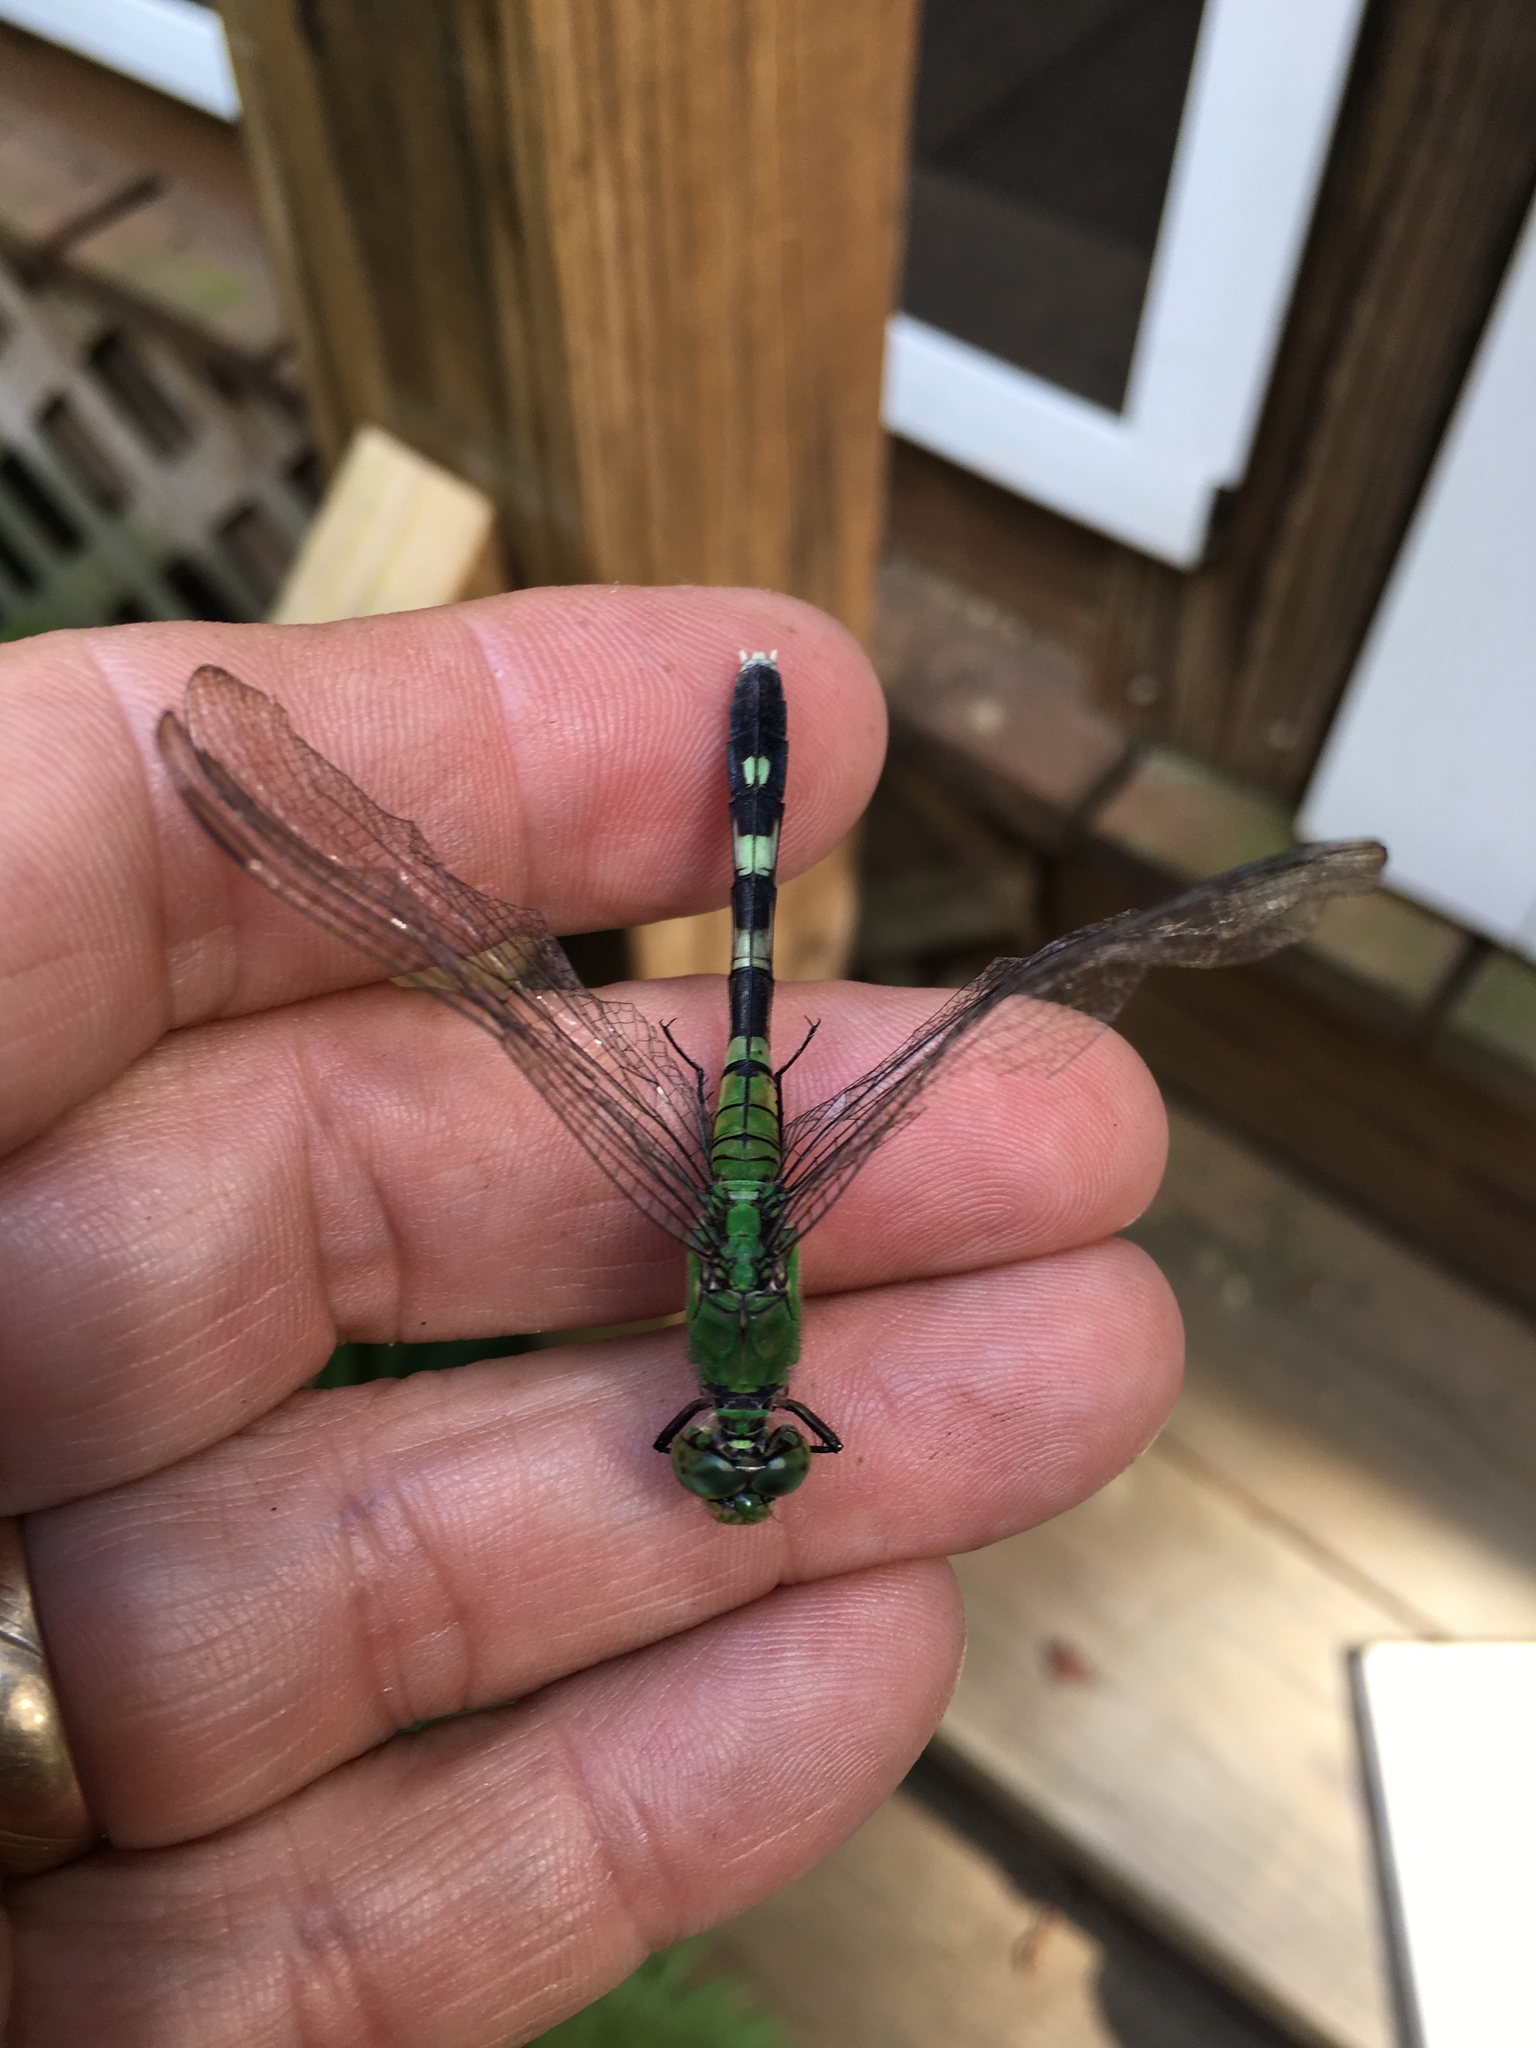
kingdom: Animalia
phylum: Arthropoda
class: Insecta
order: Odonata
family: Libellulidae
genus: Erythemis
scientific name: Erythemis simplicicollis
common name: Eastern pondhawk
